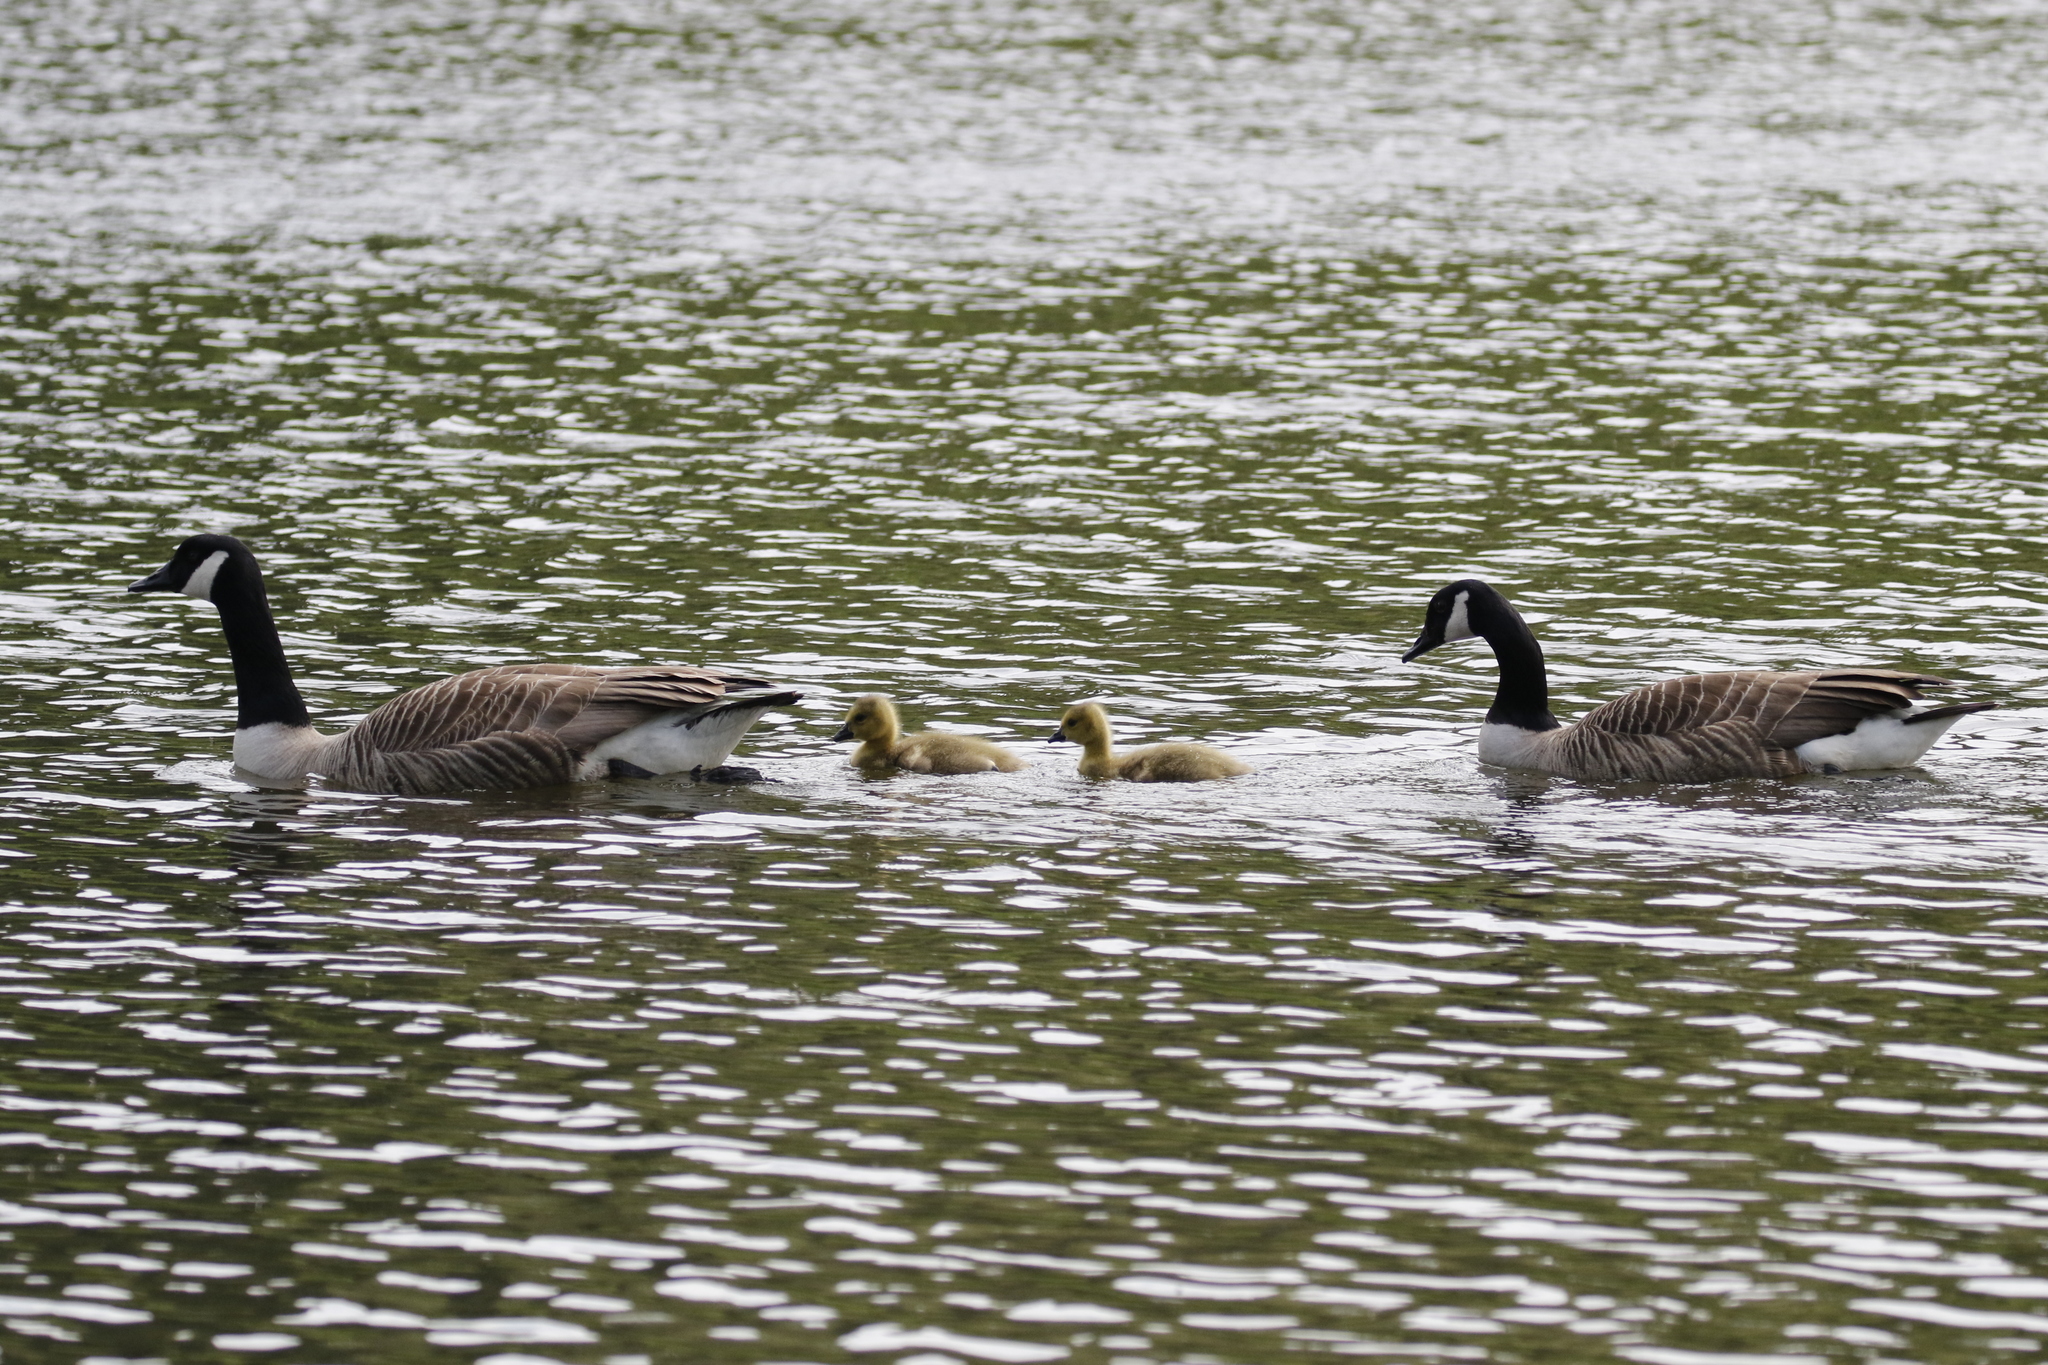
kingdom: Animalia
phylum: Chordata
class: Aves
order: Anseriformes
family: Anatidae
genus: Branta
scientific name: Branta canadensis
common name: Canada goose
